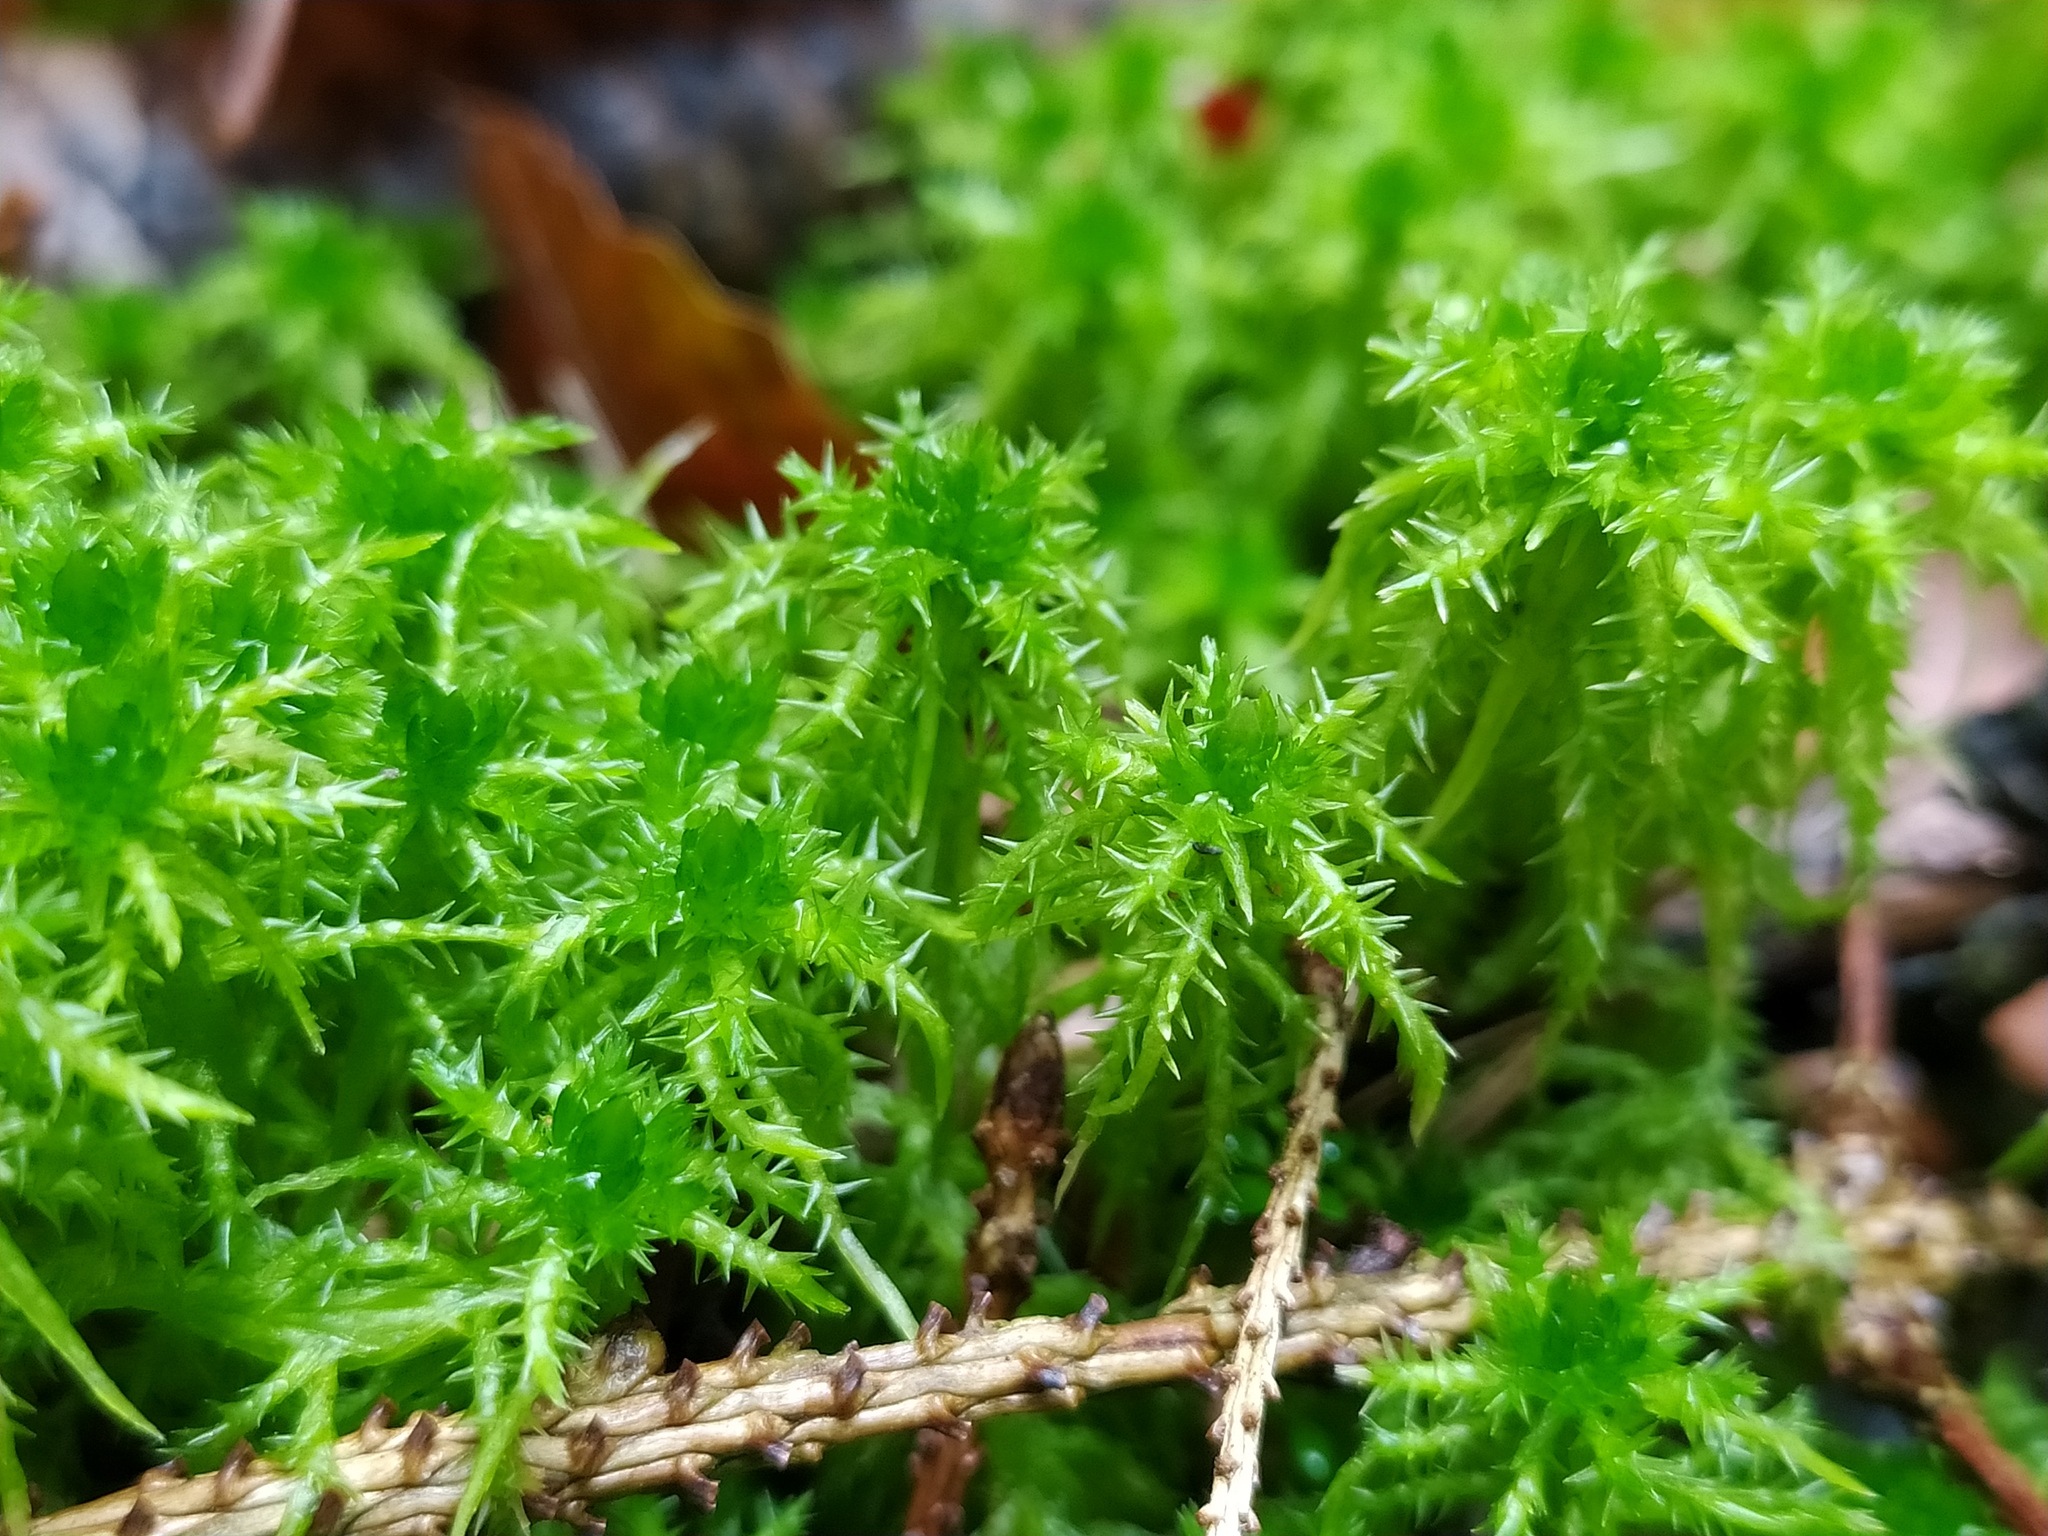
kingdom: Plantae
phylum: Bryophyta
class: Sphagnopsida
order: Sphagnales
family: Sphagnaceae
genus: Sphagnum
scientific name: Sphagnum squarrosum
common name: Shaggy peat moss
